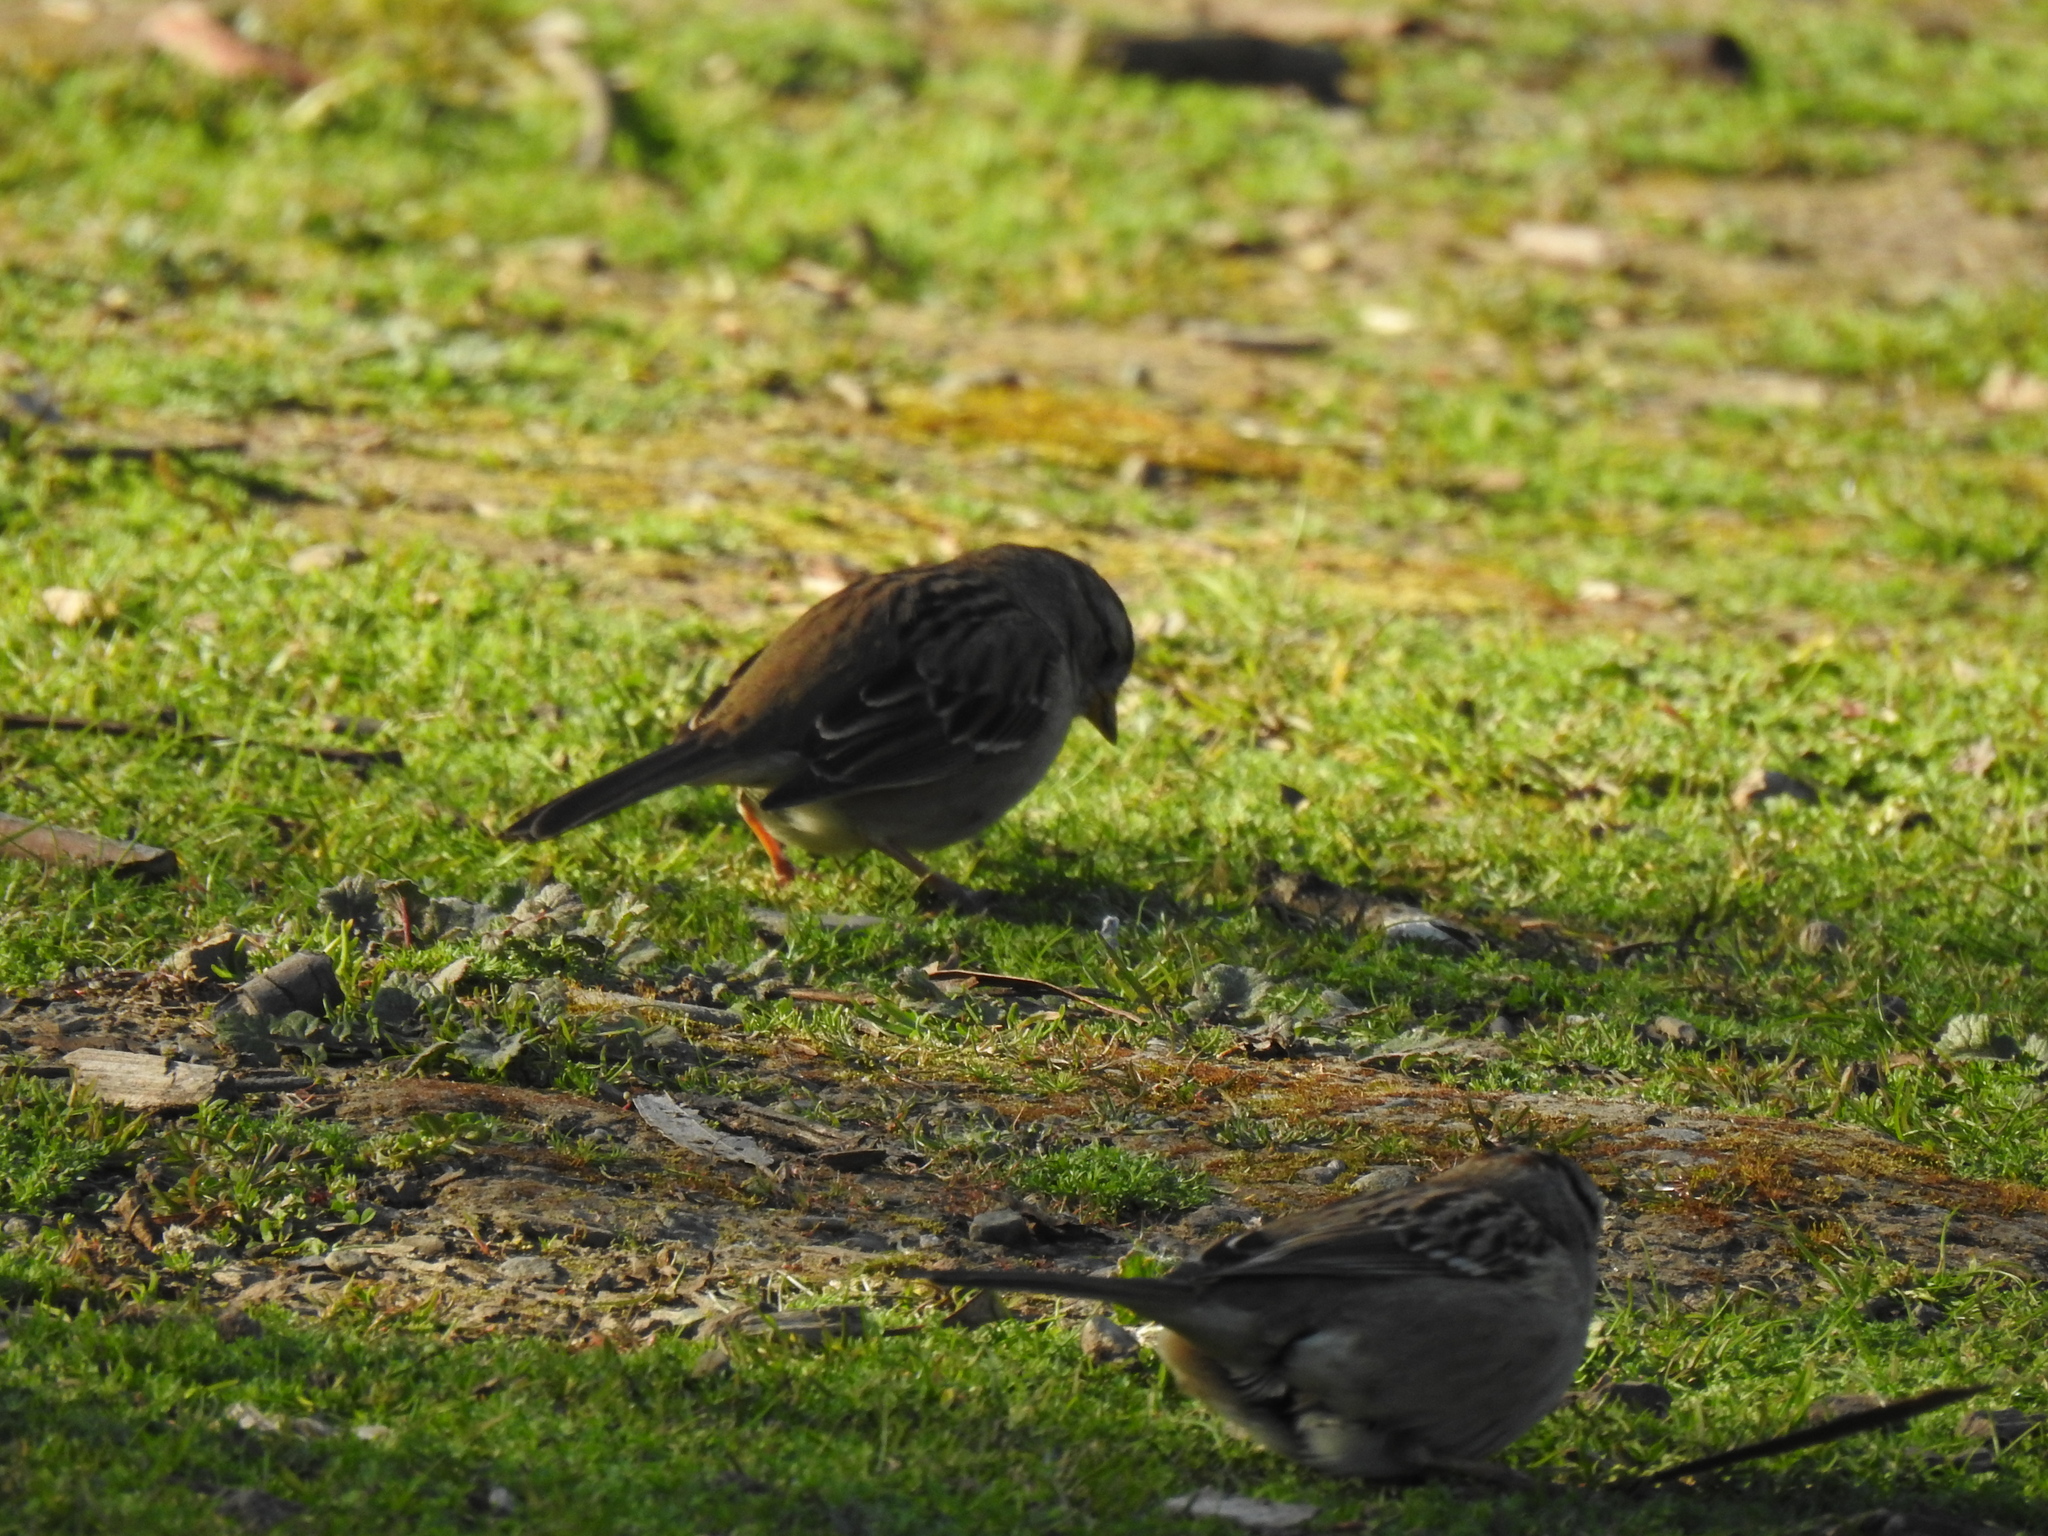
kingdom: Animalia
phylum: Chordata
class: Aves
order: Passeriformes
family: Passerellidae
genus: Zonotrichia
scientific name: Zonotrichia leucophrys
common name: White-crowned sparrow
